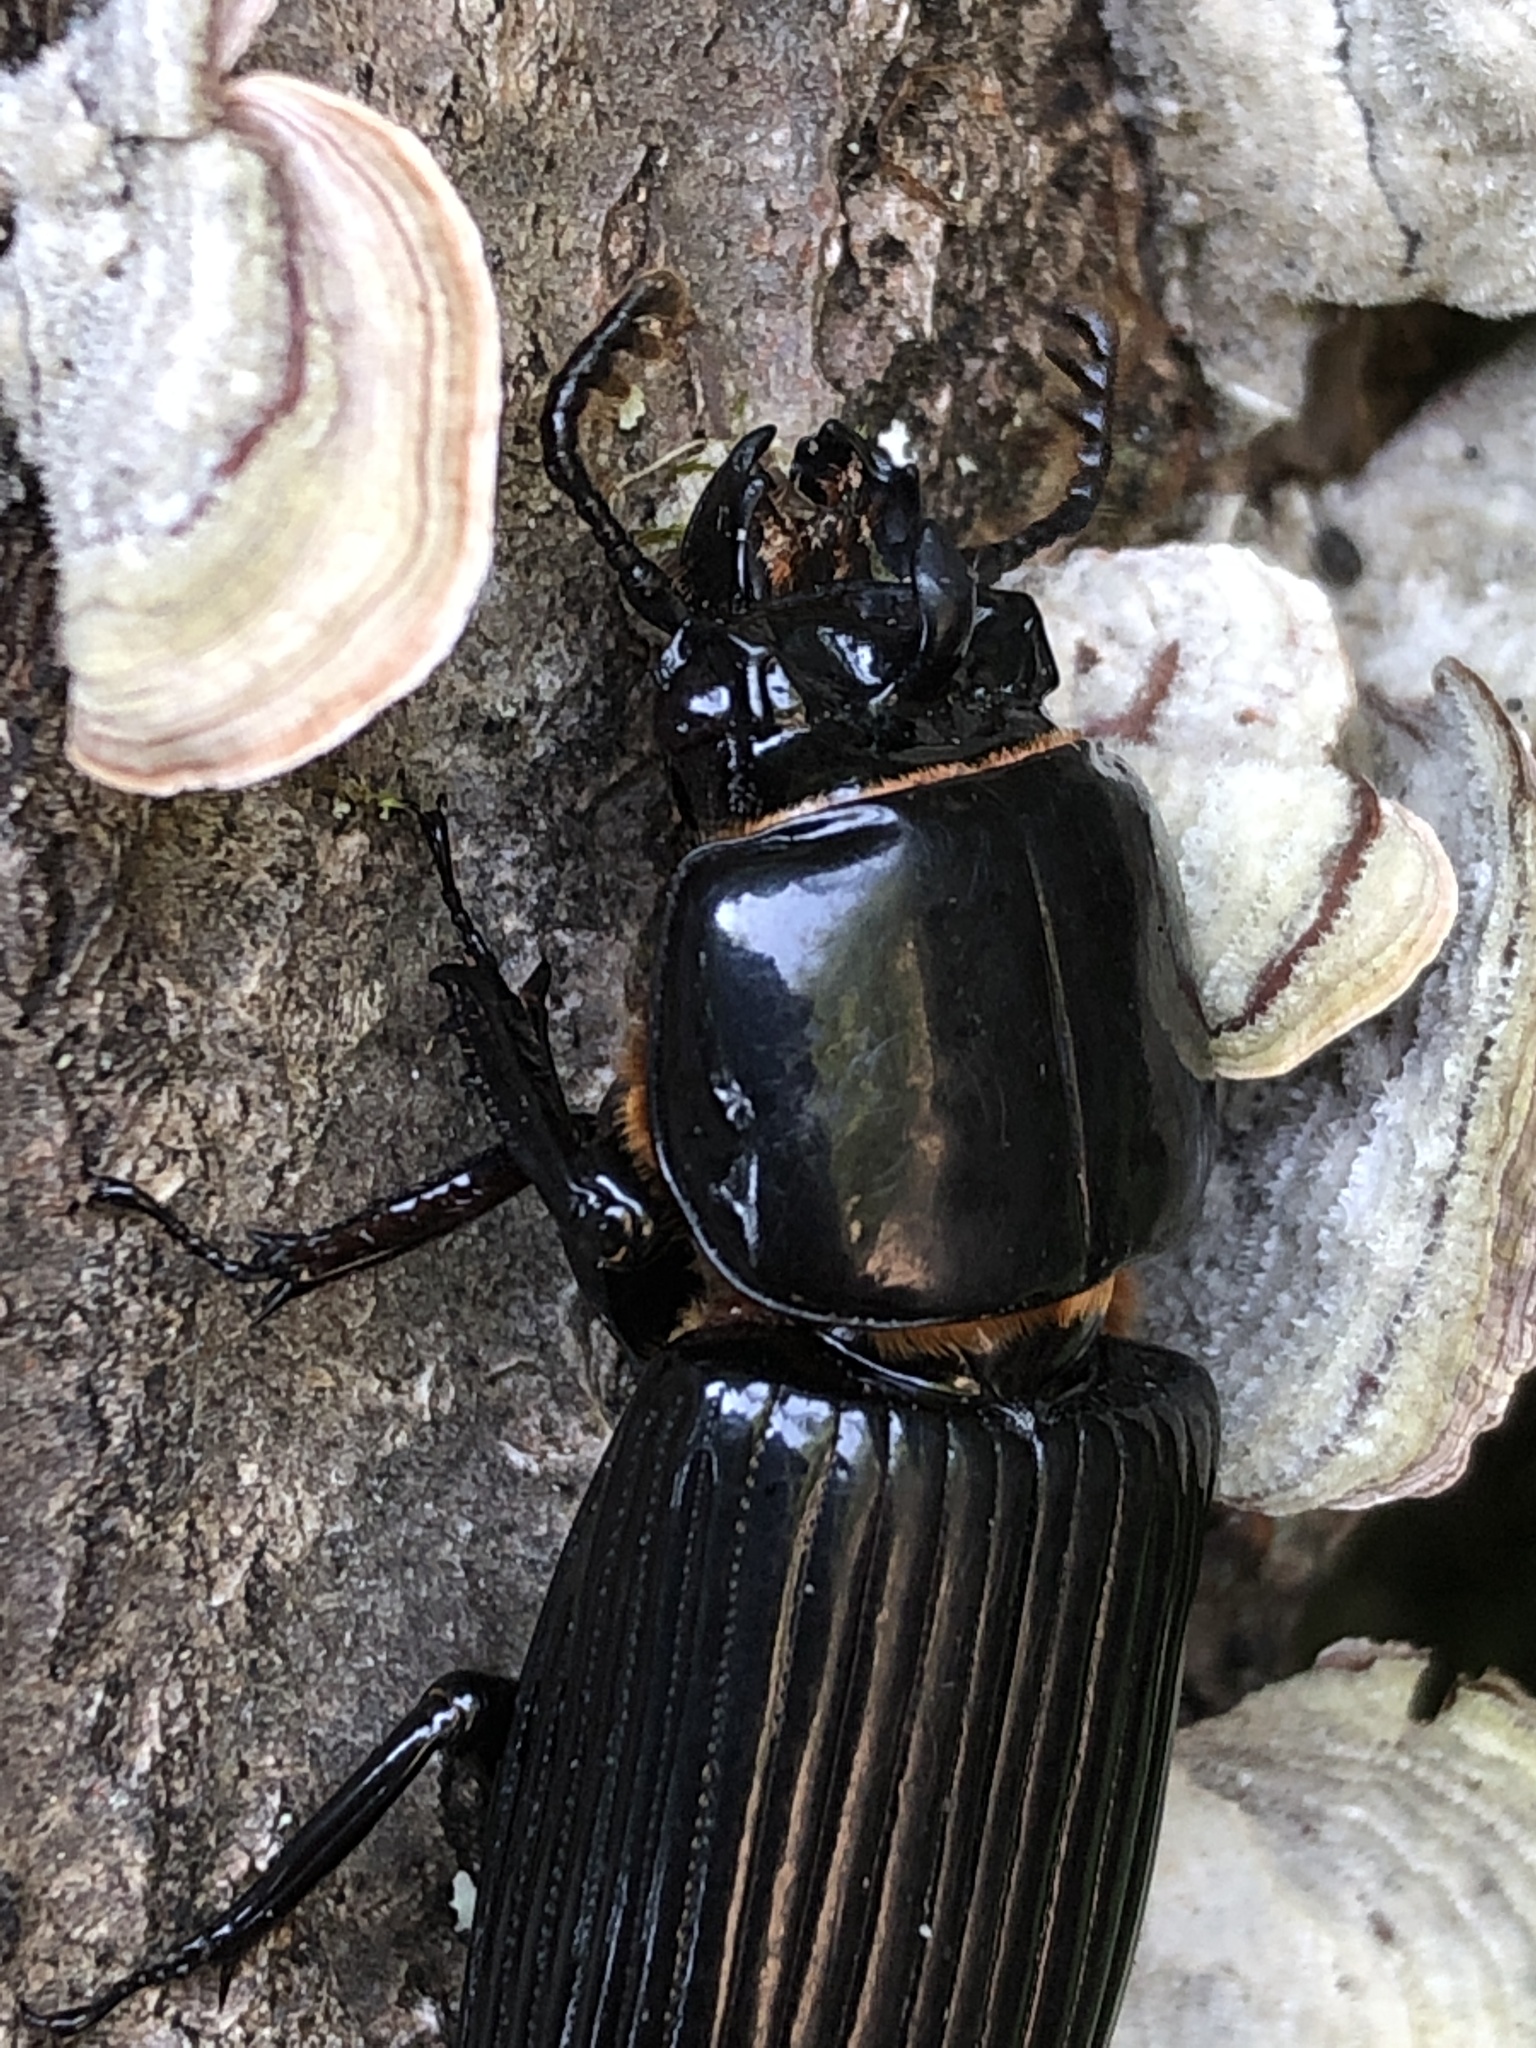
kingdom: Animalia
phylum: Arthropoda
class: Insecta
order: Coleoptera
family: Passalidae
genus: Odontotaenius
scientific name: Odontotaenius disjunctus
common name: Patent leather beetle
